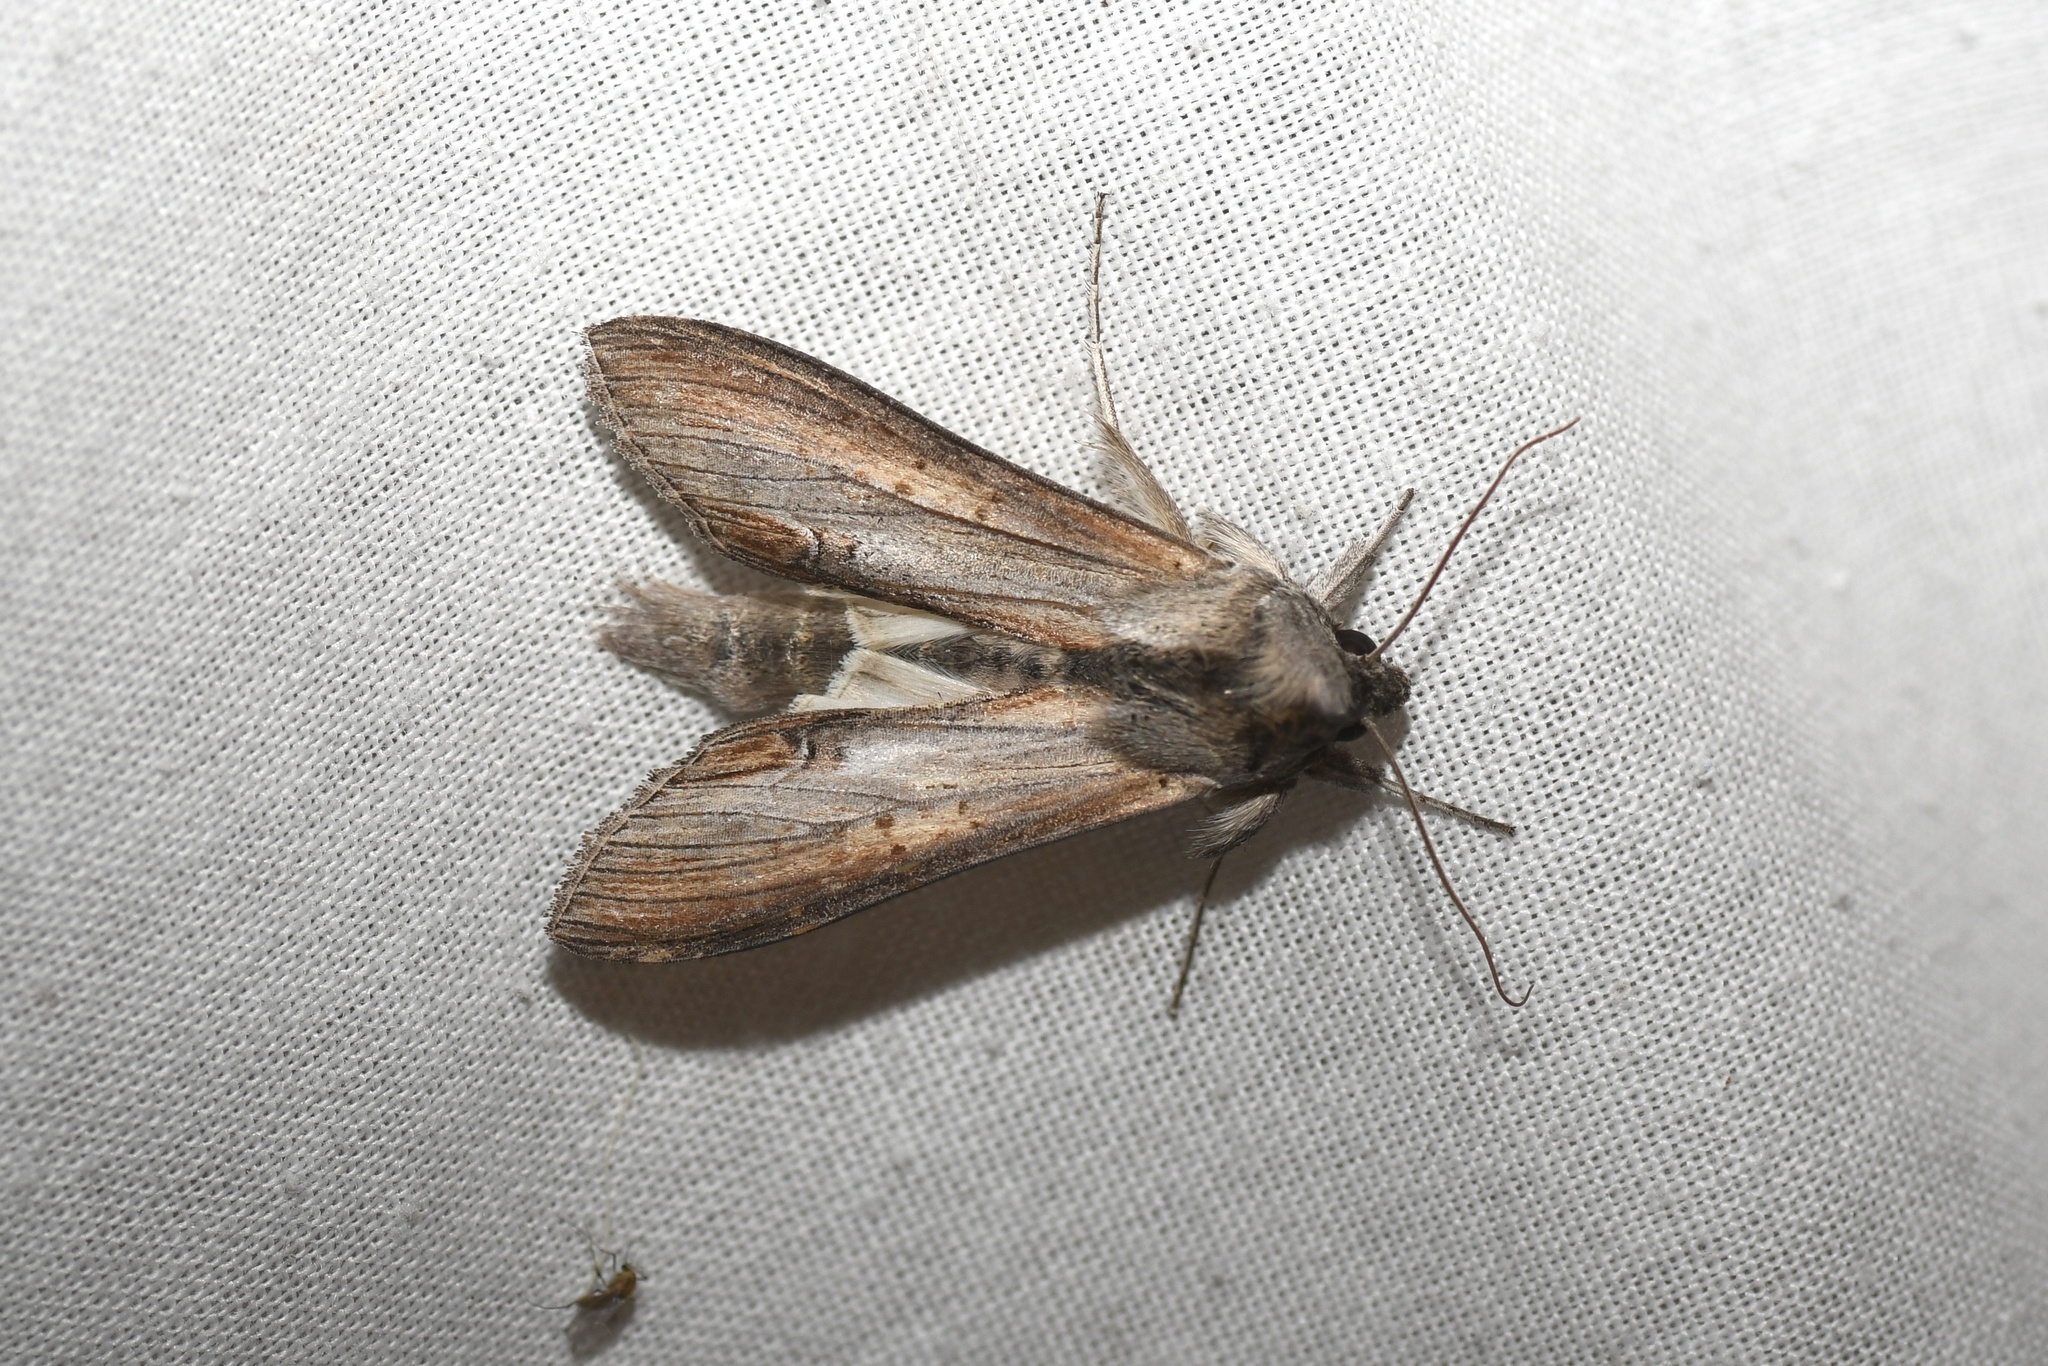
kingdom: Animalia
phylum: Arthropoda
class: Insecta
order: Lepidoptera
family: Noctuidae
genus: Cucullia
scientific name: Cucullia asteroides
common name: Asteroid moth
